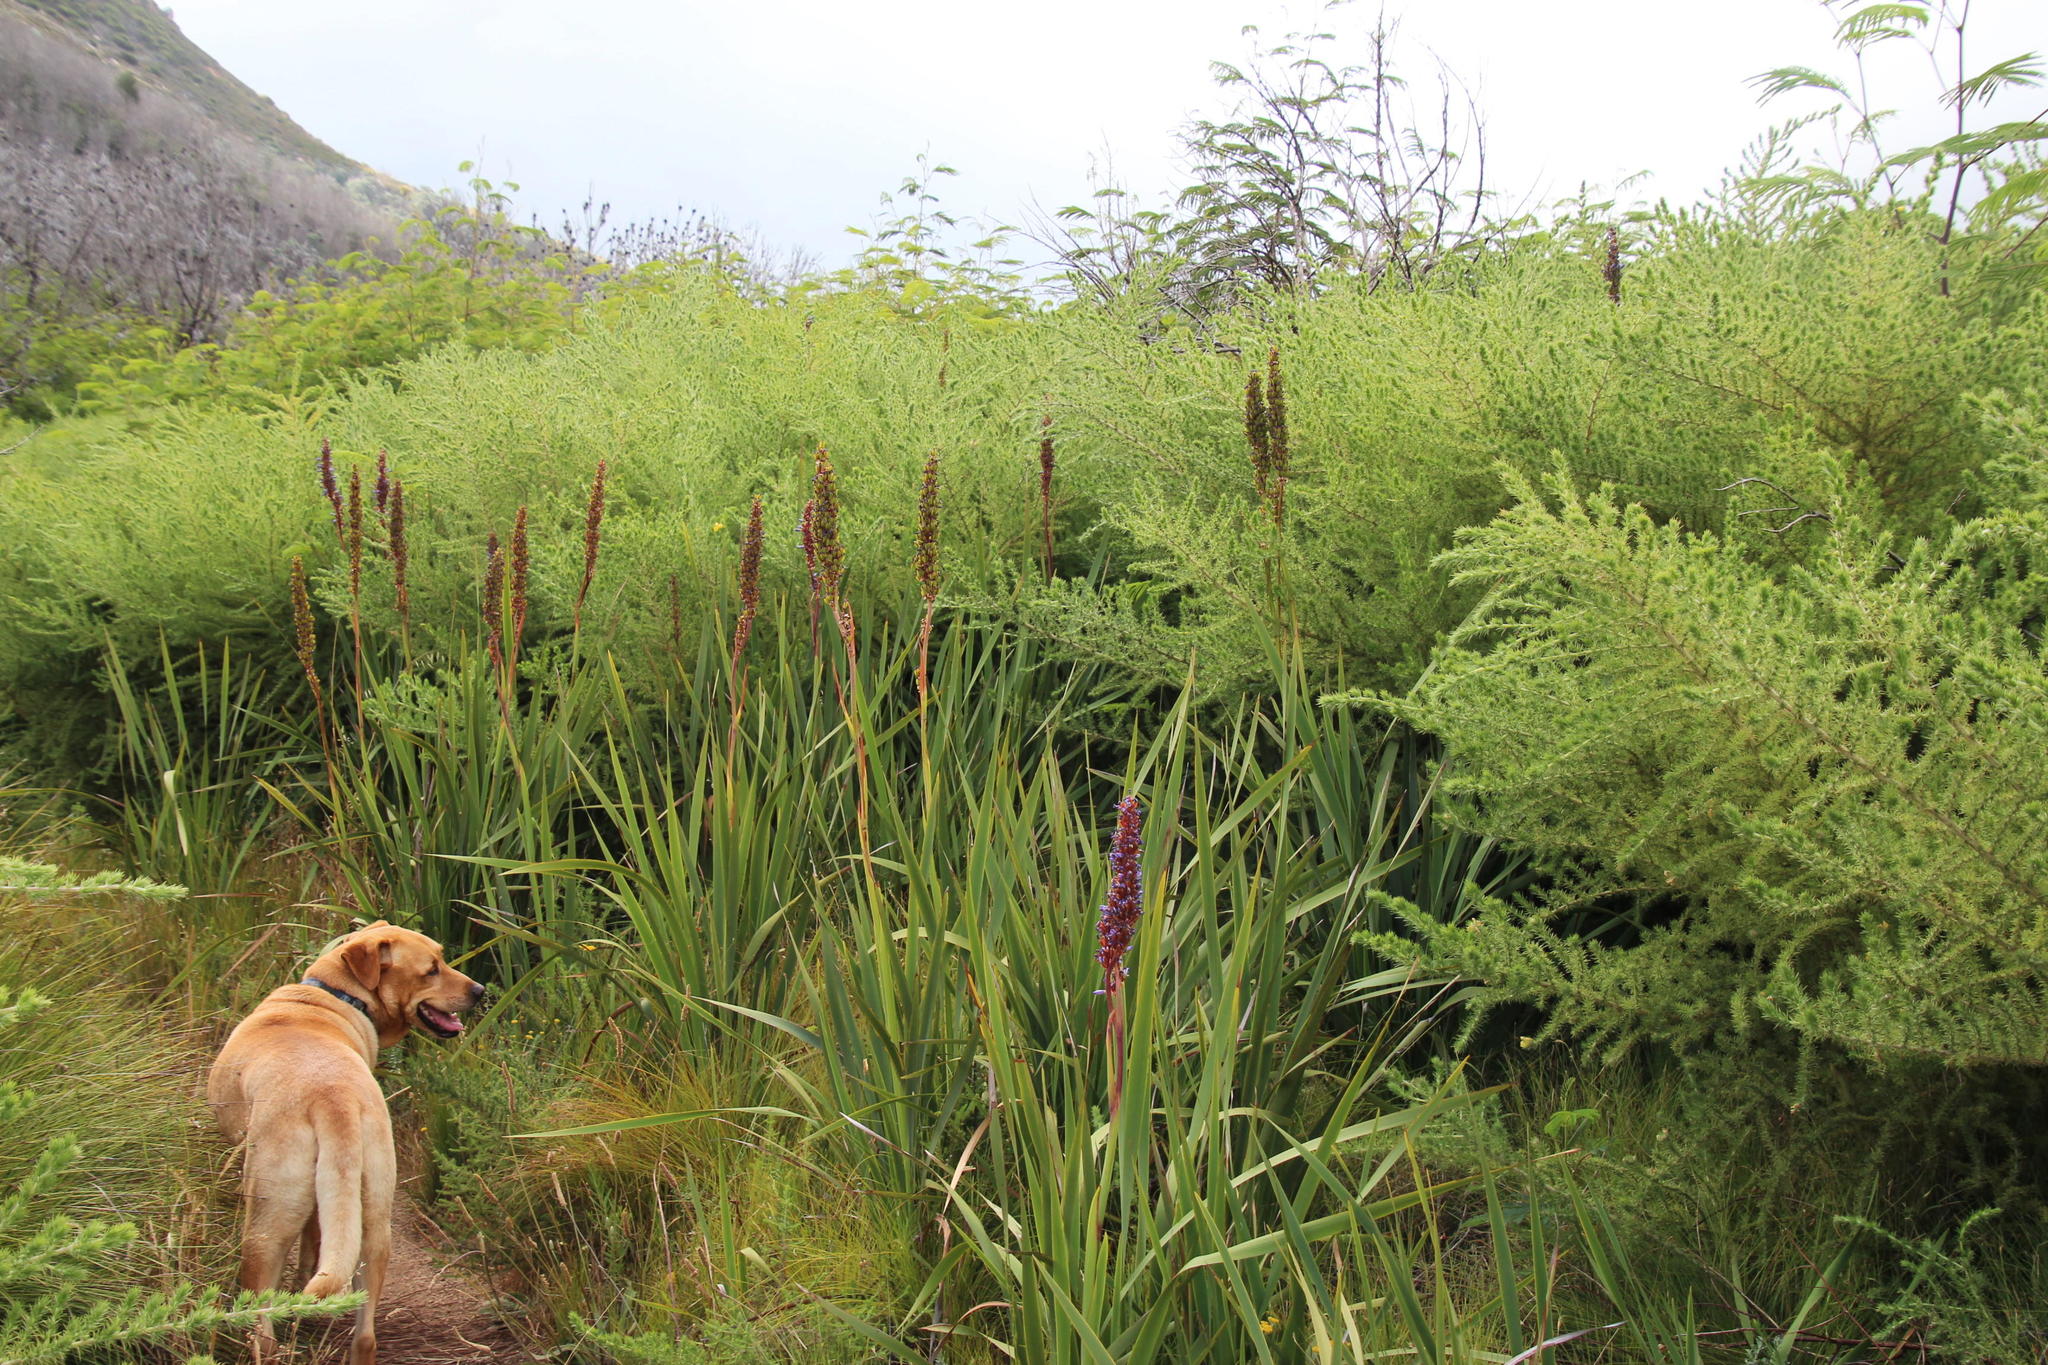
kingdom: Plantae
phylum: Tracheophyta
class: Magnoliopsida
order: Fabales
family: Fabaceae
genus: Aspalathus
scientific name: Aspalathus chenopoda
